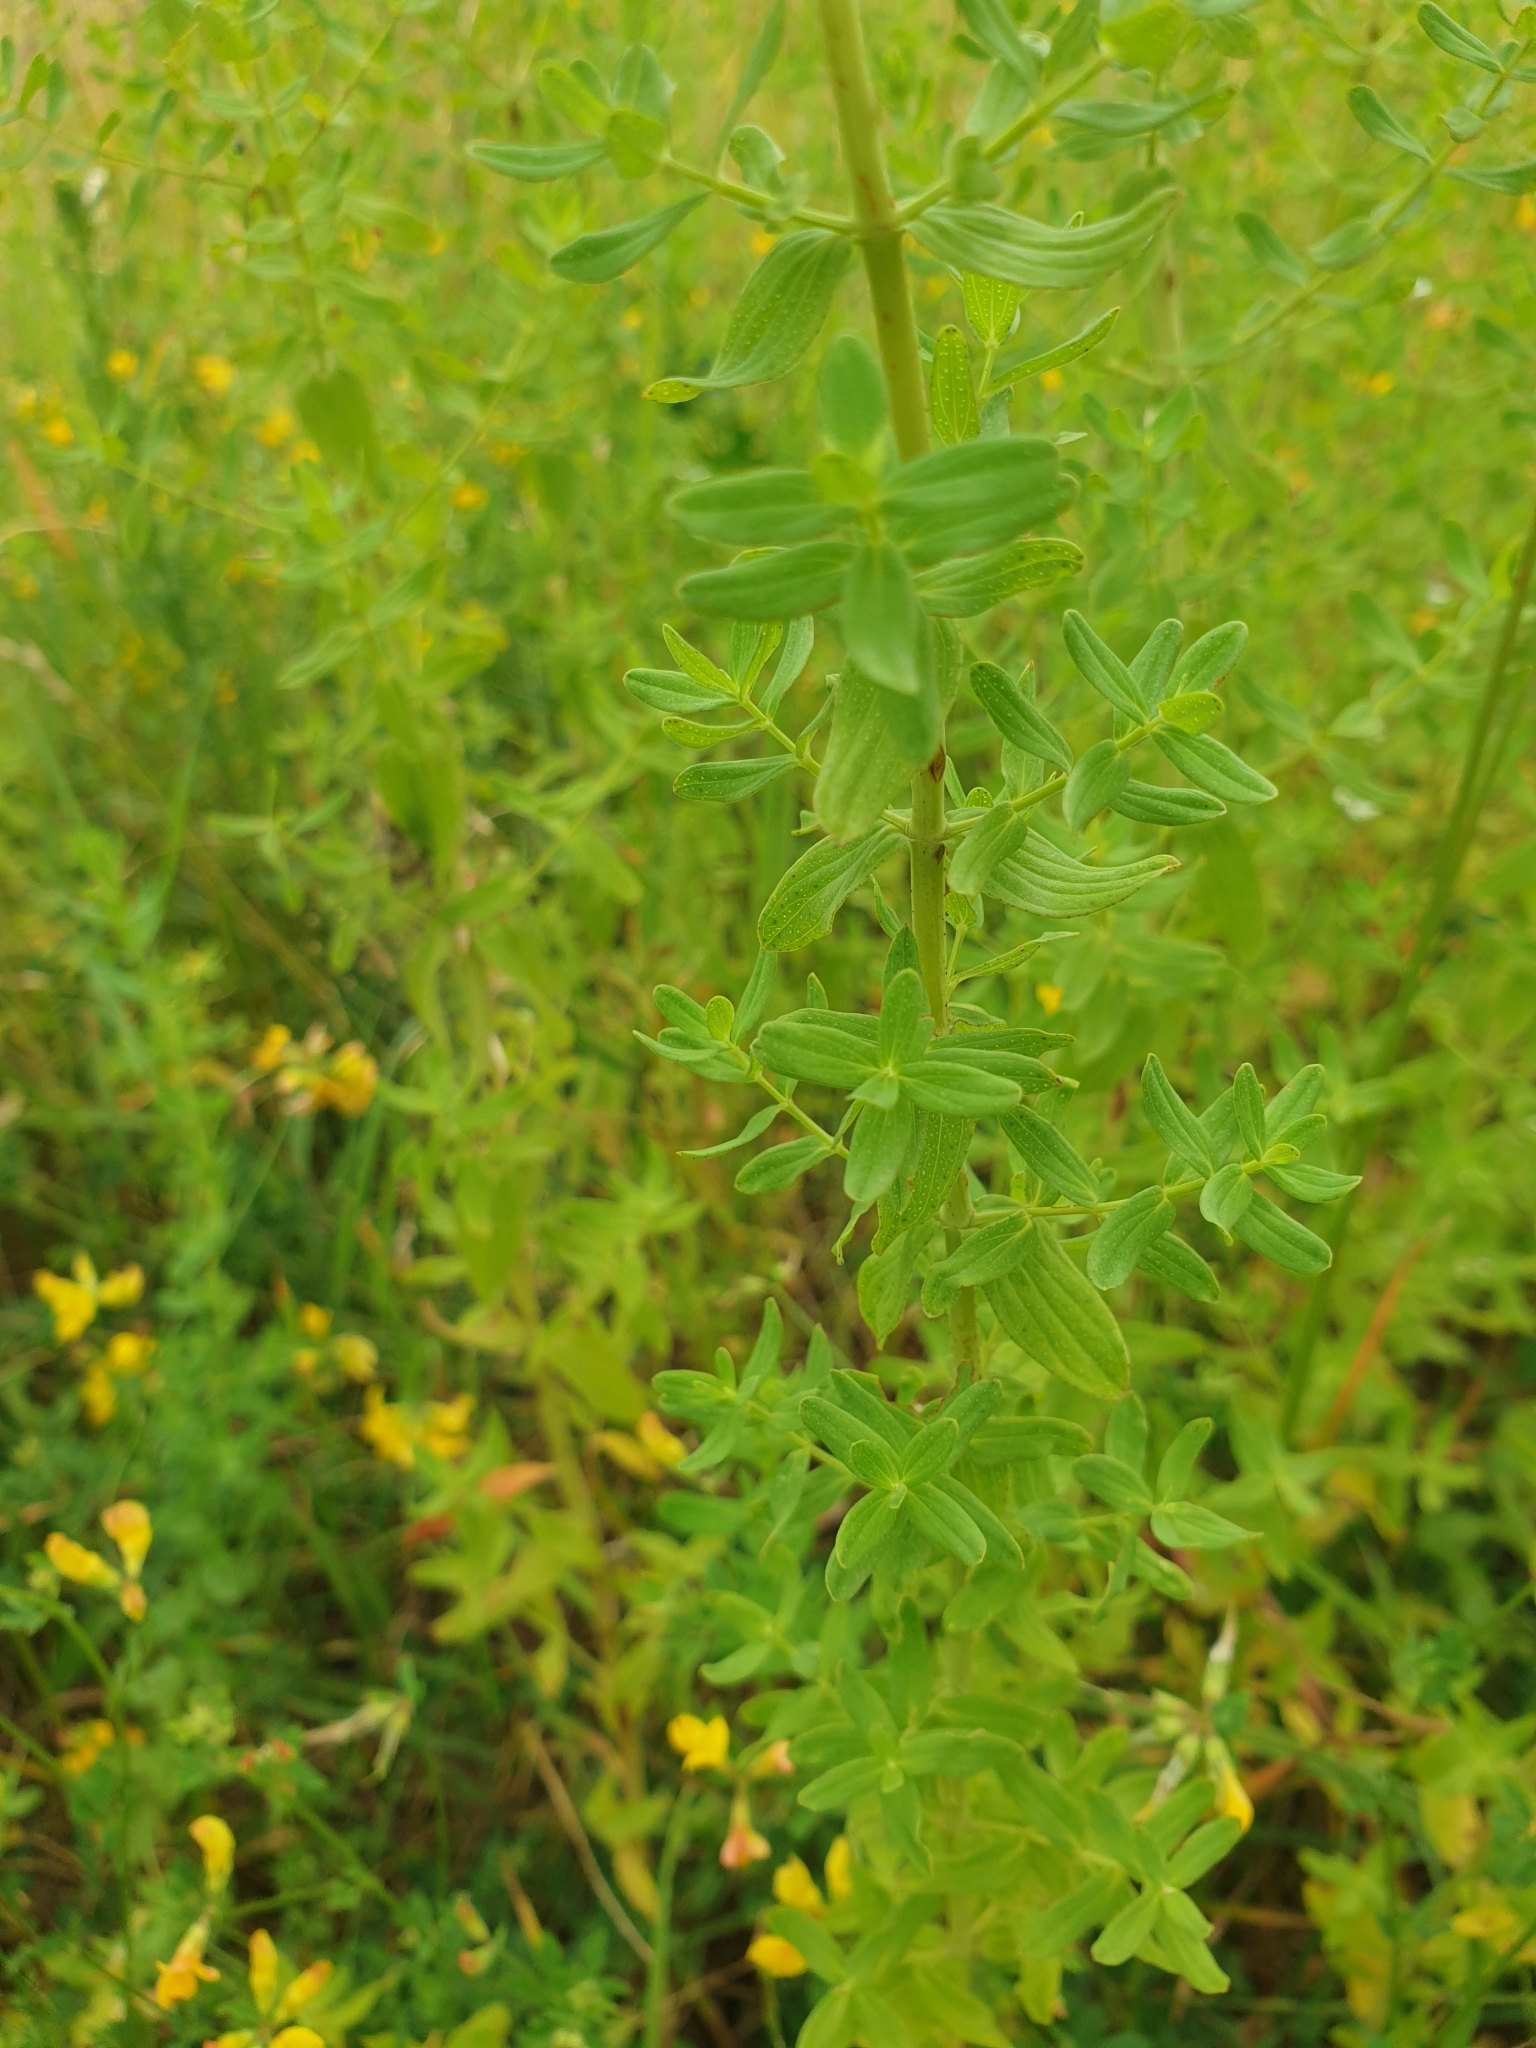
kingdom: Plantae
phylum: Tracheophyta
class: Magnoliopsida
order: Malpighiales
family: Hypericaceae
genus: Hypericum
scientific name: Hypericum perforatum
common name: Common st. johnswort
